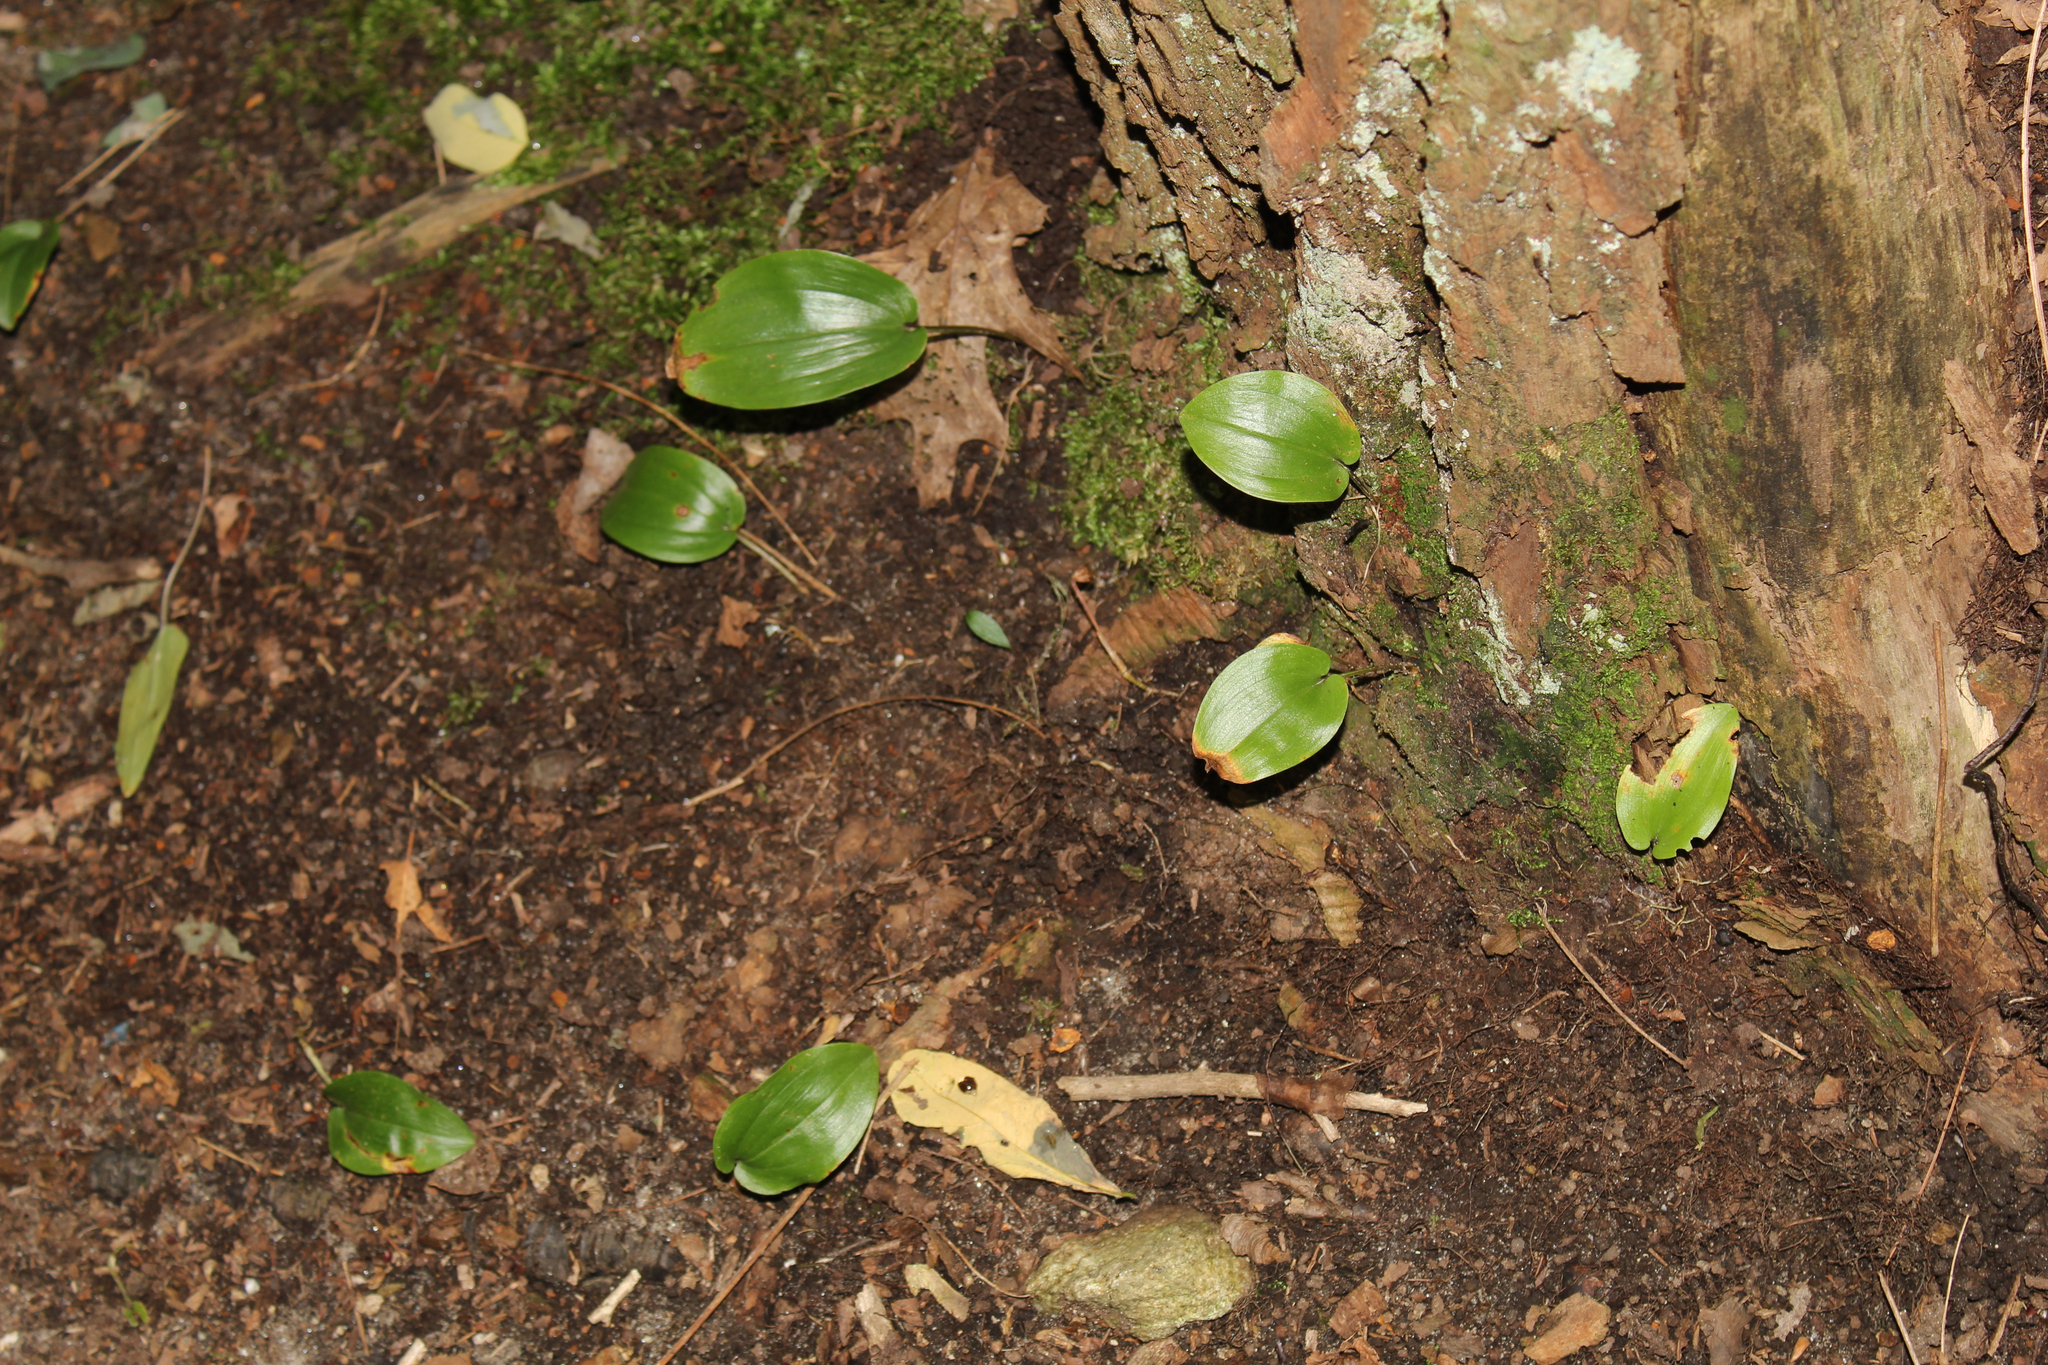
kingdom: Plantae
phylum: Tracheophyta
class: Liliopsida
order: Asparagales
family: Asparagaceae
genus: Maianthemum
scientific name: Maianthemum canadense
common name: False lily-of-the-valley
